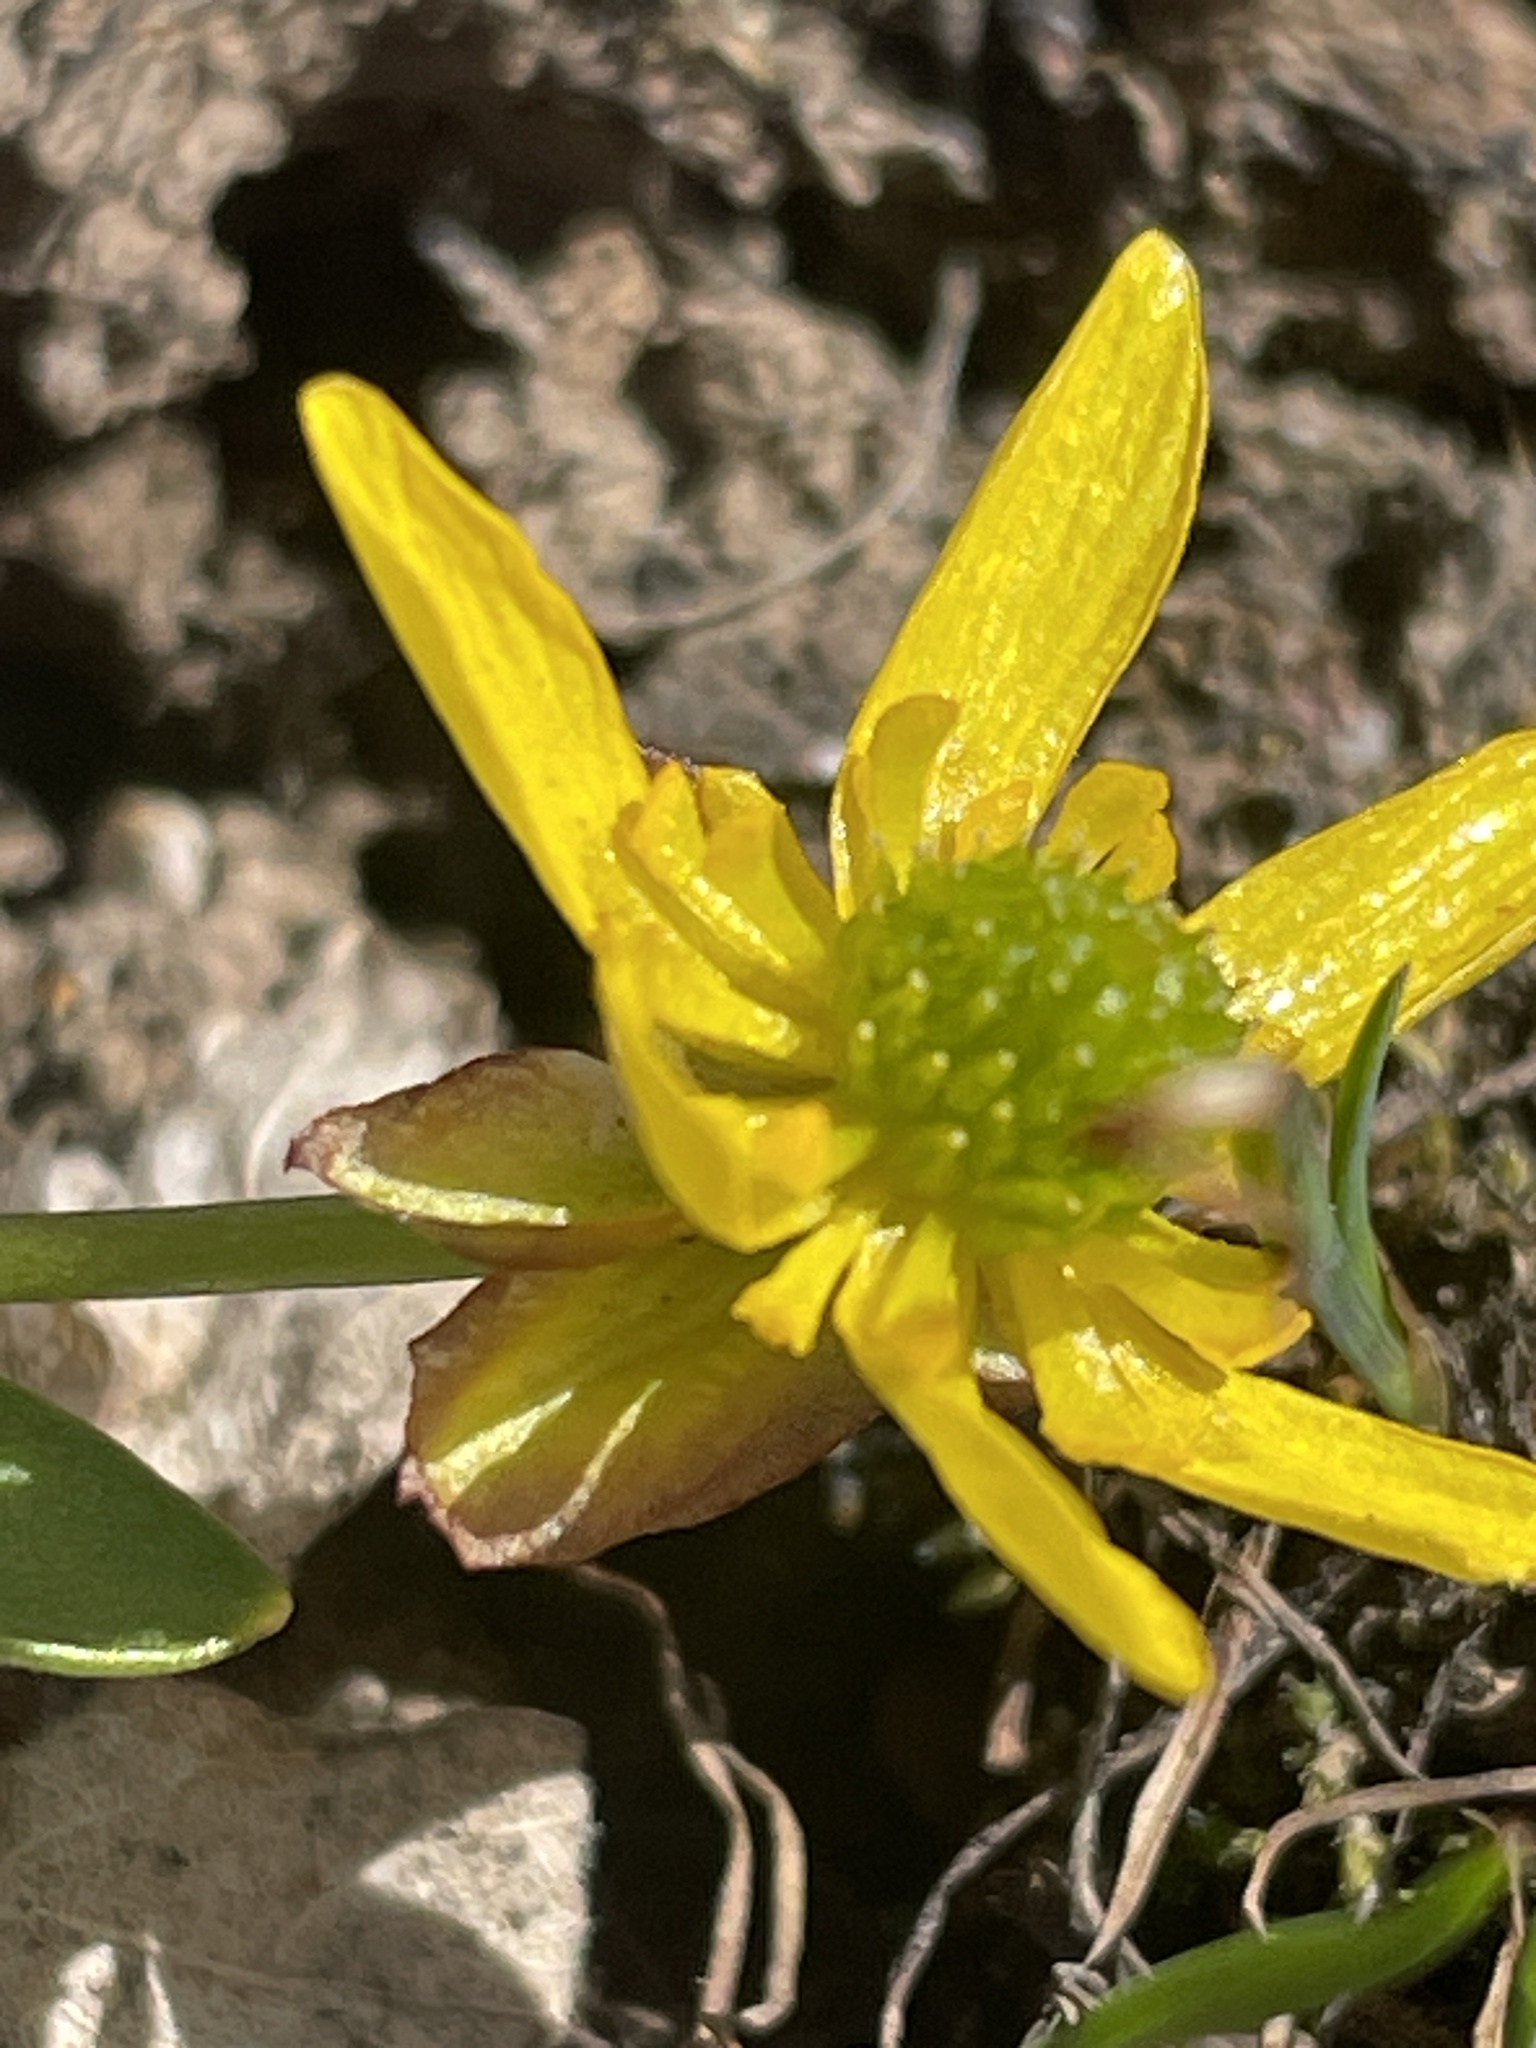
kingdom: Plantae
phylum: Tracheophyta
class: Magnoliopsida
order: Ranunculales
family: Ranunculaceae
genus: Ranunculus
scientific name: Ranunculus glaberrimus
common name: Sagebrush buttercup
